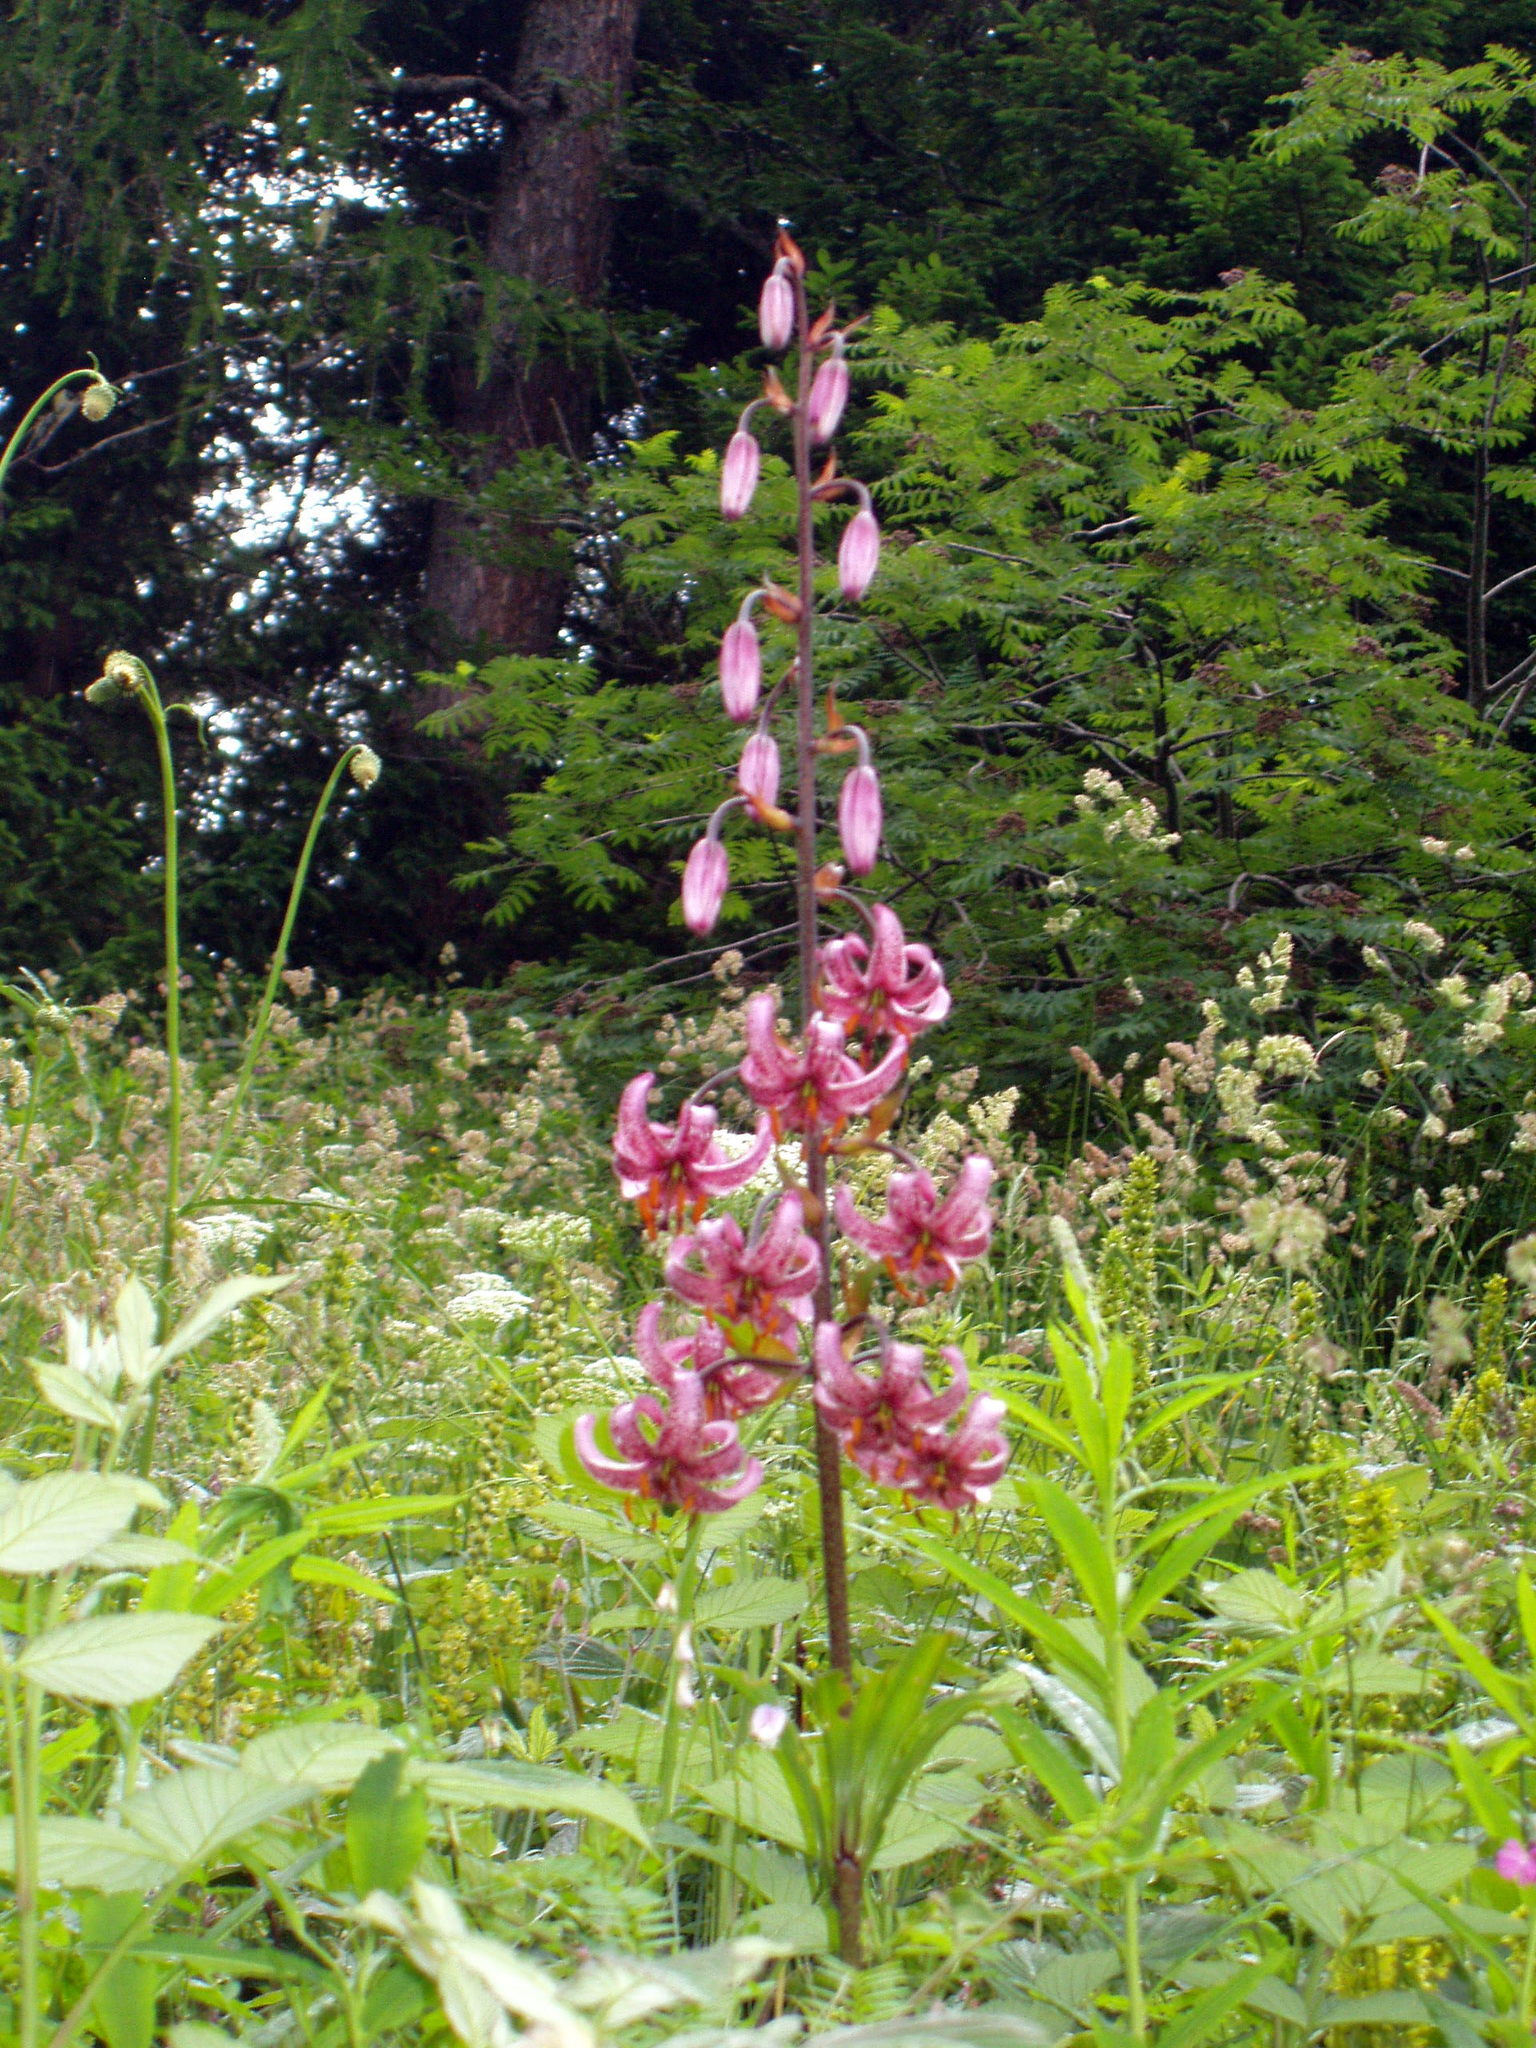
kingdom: Plantae
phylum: Tracheophyta
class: Liliopsida
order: Liliales
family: Liliaceae
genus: Lilium
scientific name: Lilium martagon
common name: Martagon lily
